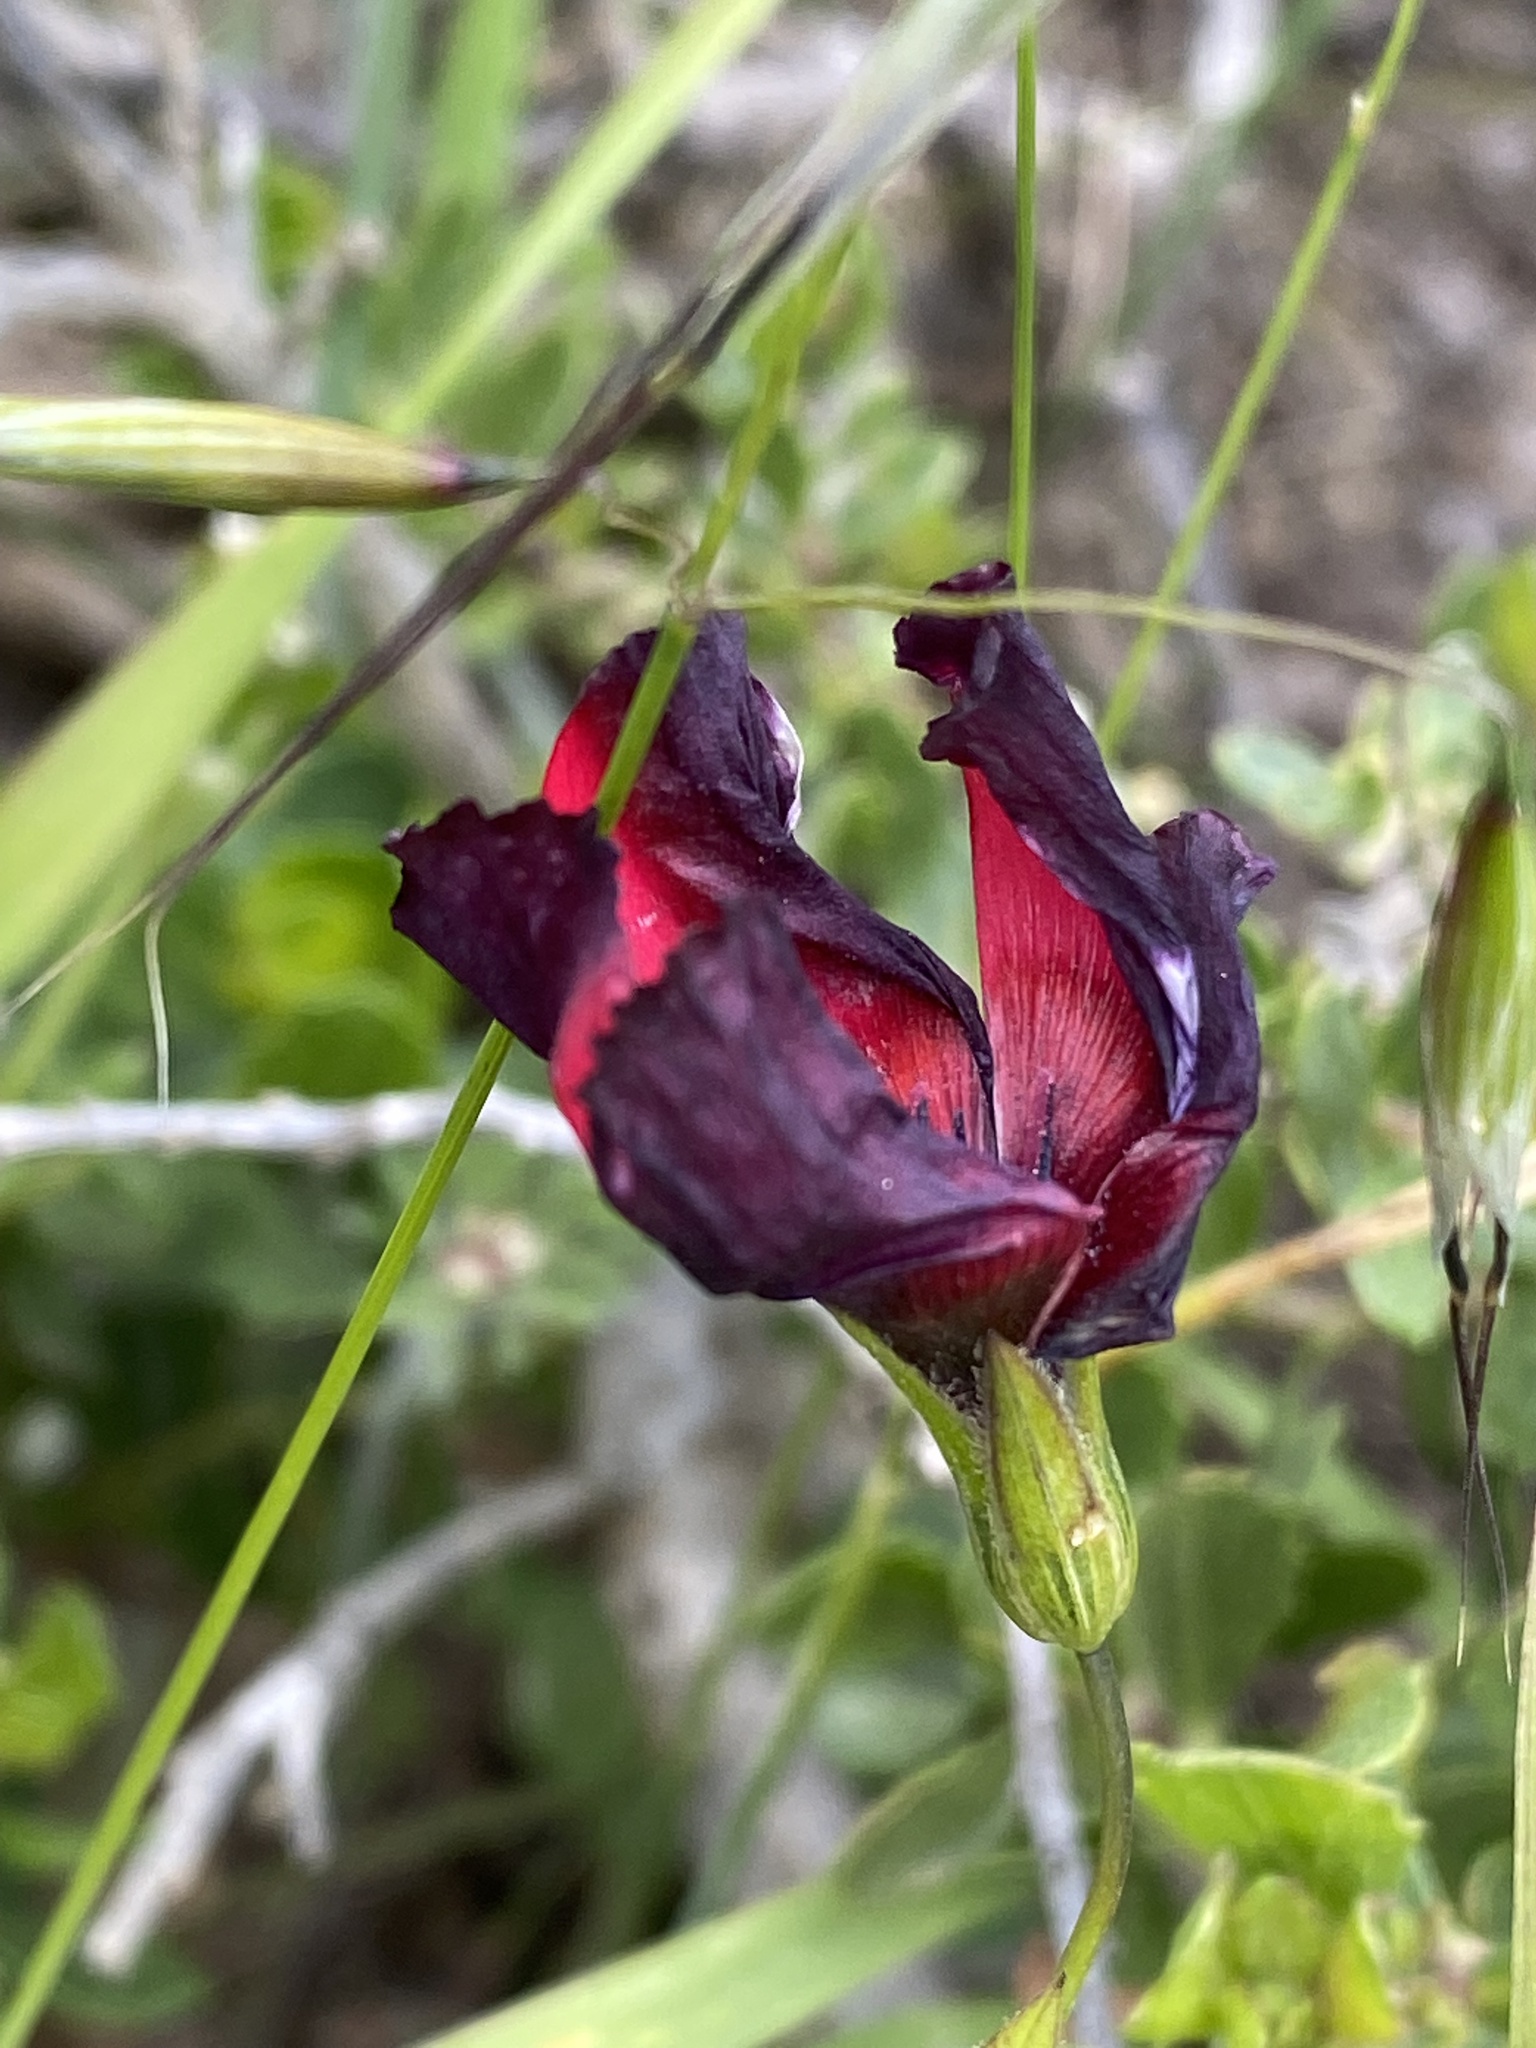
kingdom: Plantae
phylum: Tracheophyta
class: Magnoliopsida
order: Malpighiales
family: Linaceae
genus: Linum
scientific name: Linum grandiflorum
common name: Crimson flax
